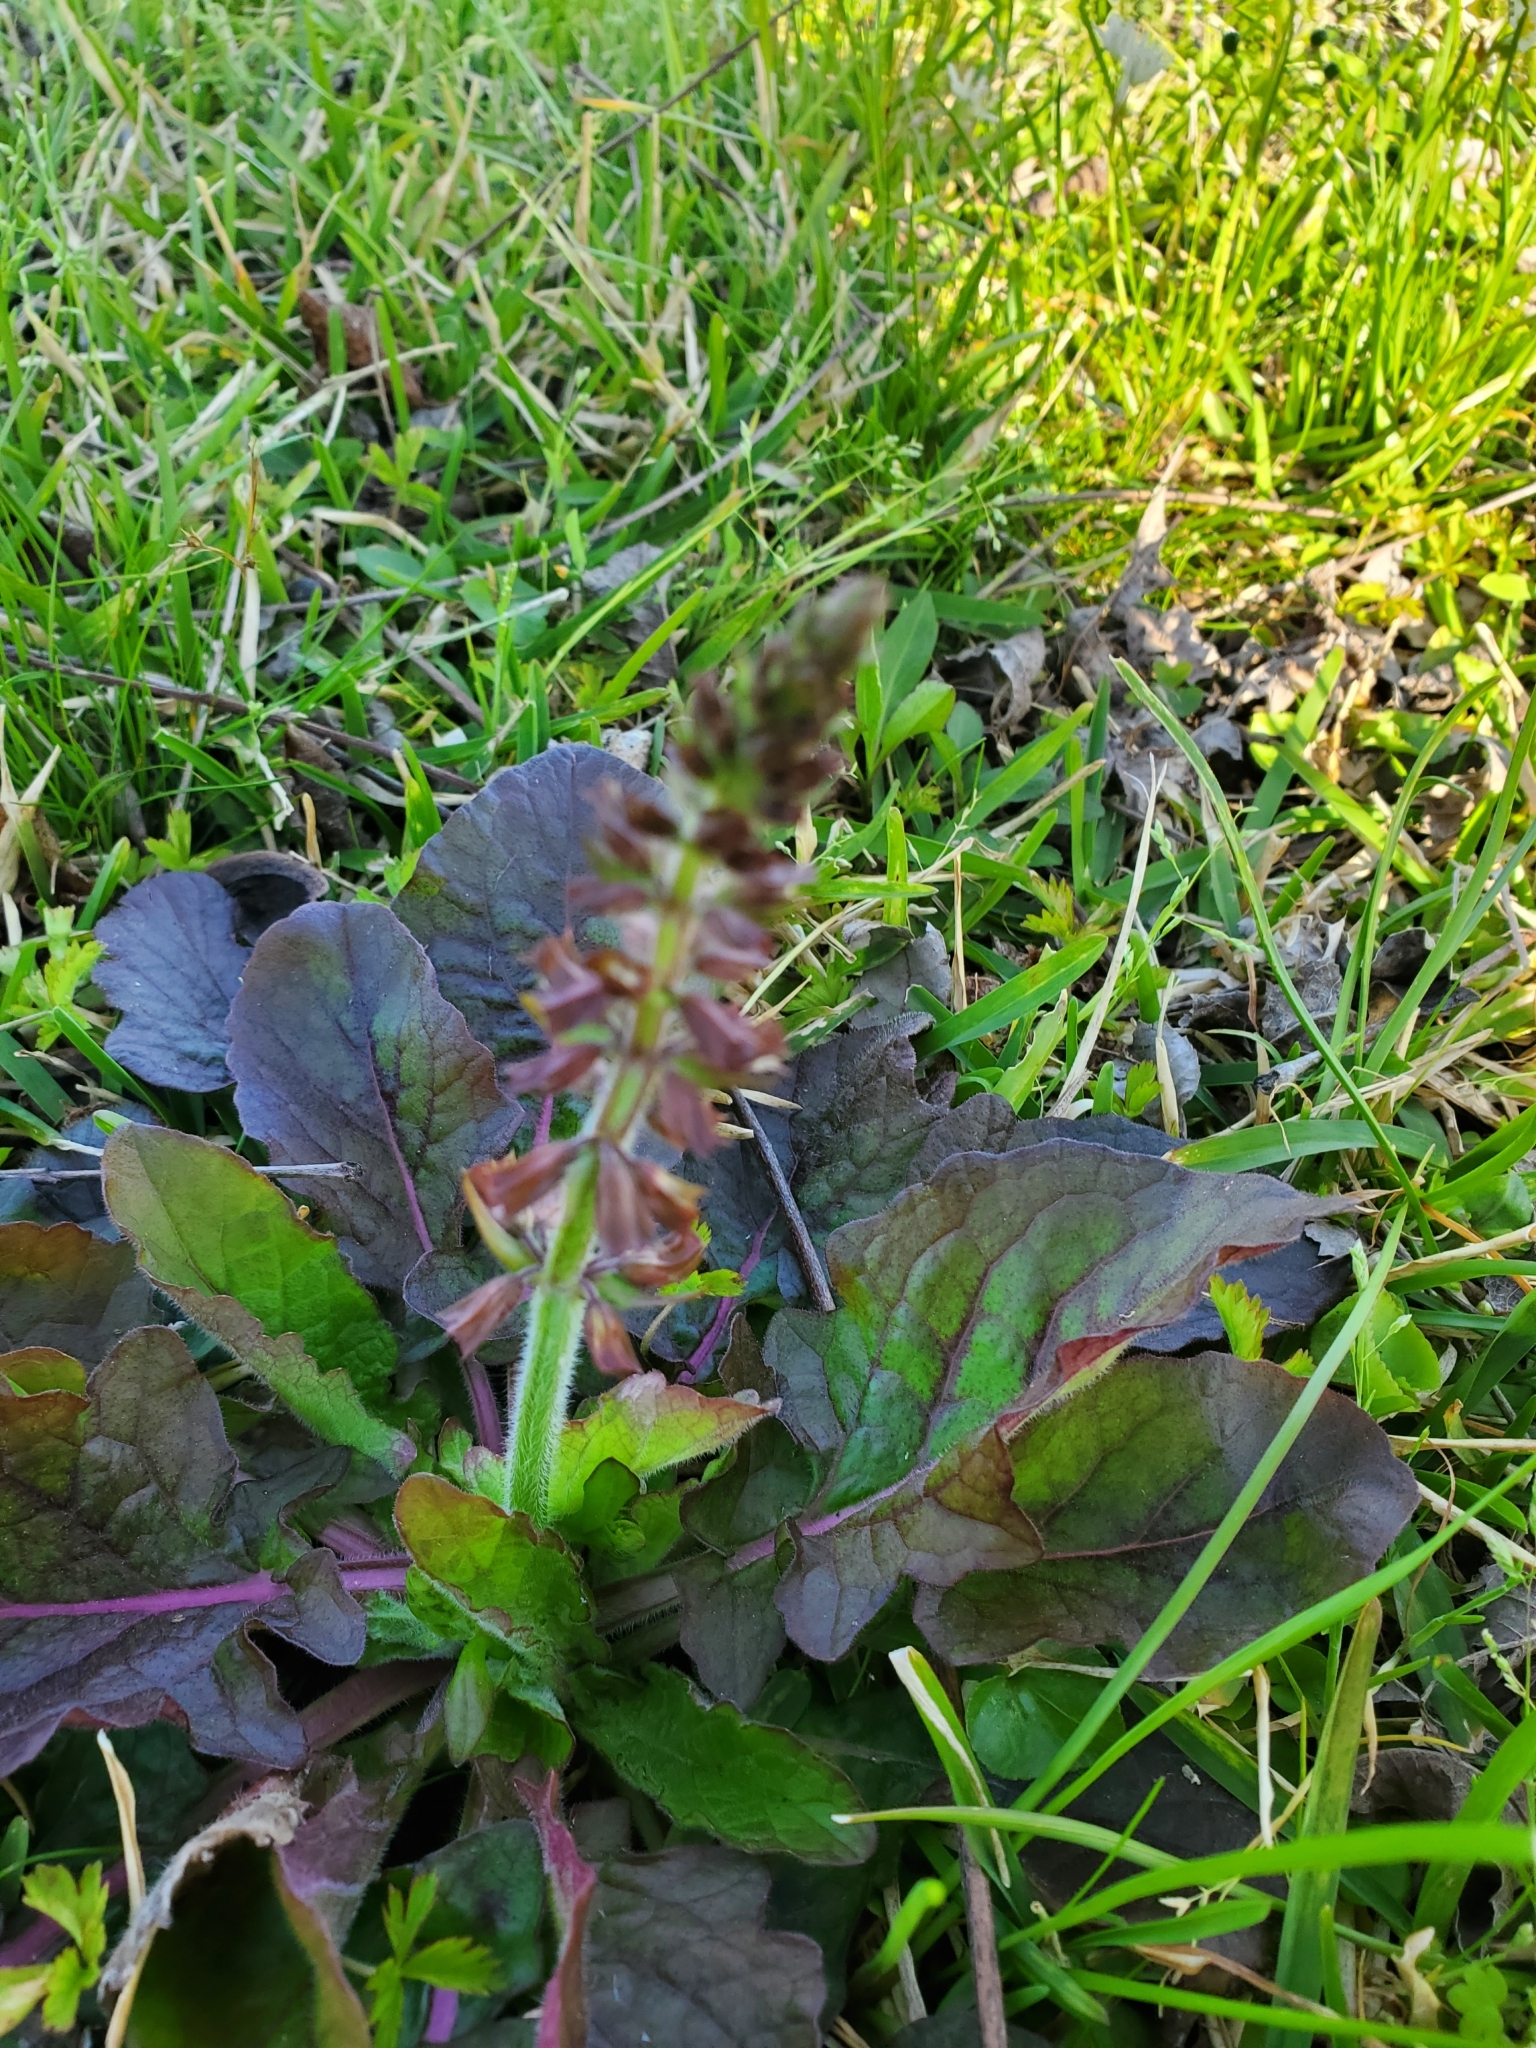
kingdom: Plantae
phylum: Tracheophyta
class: Magnoliopsida
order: Lamiales
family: Lamiaceae
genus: Salvia
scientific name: Salvia lyrata
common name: Cancerweed
